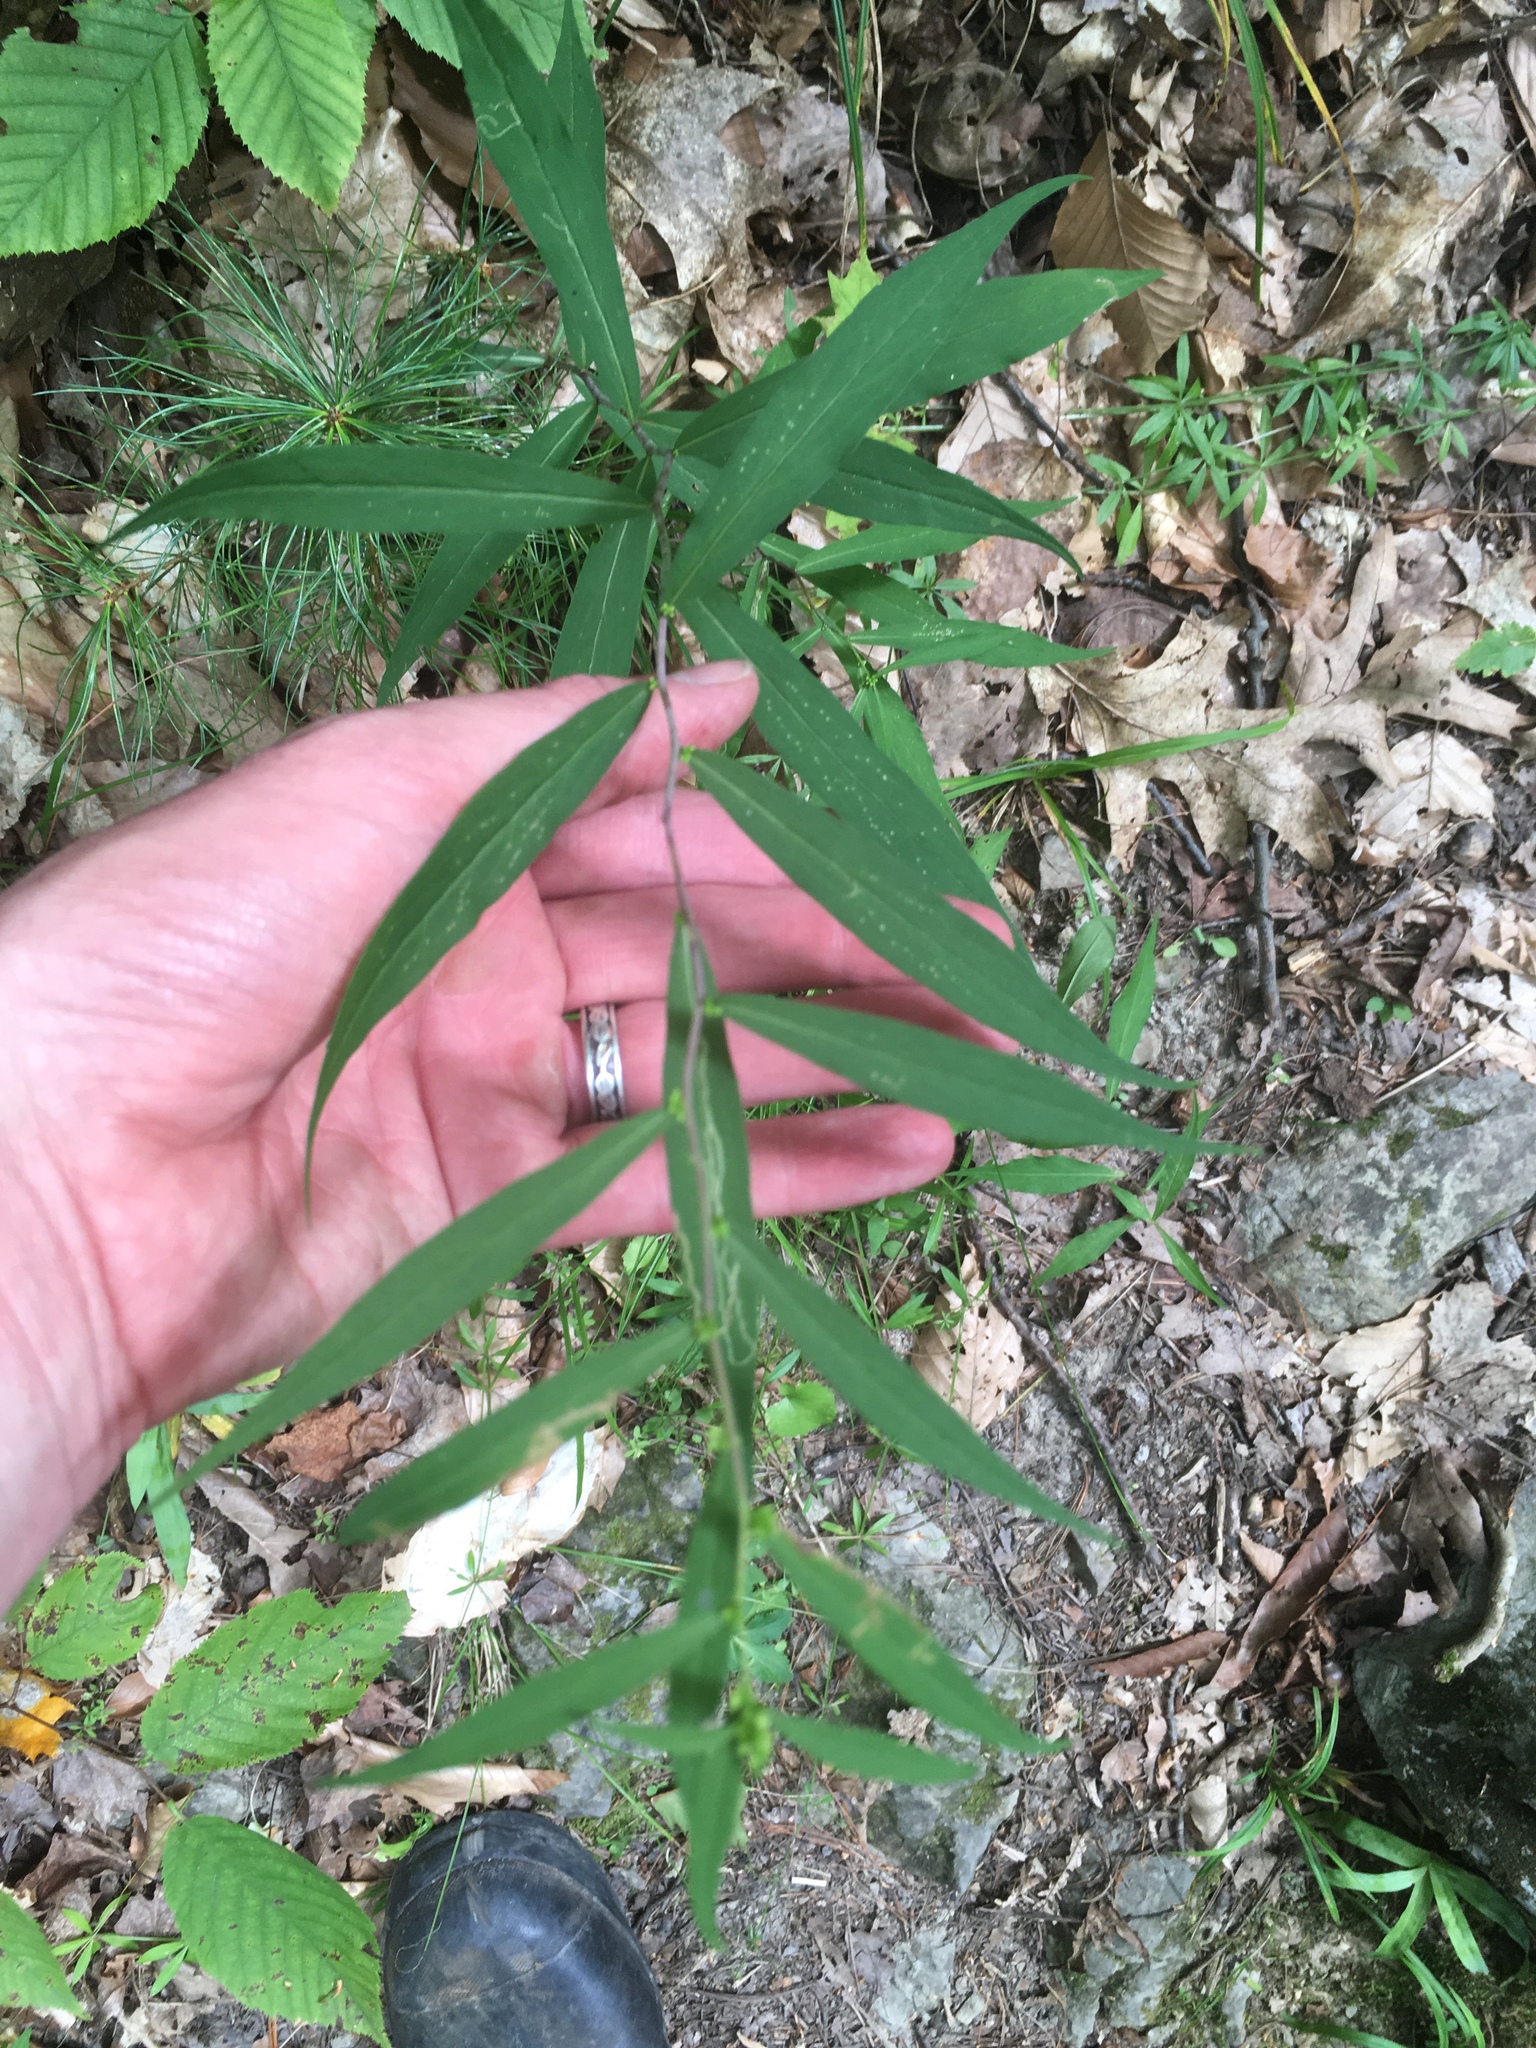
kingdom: Plantae
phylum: Tracheophyta
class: Magnoliopsida
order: Asterales
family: Asteraceae
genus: Solidago
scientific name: Solidago caesia
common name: Woodland goldenrod
